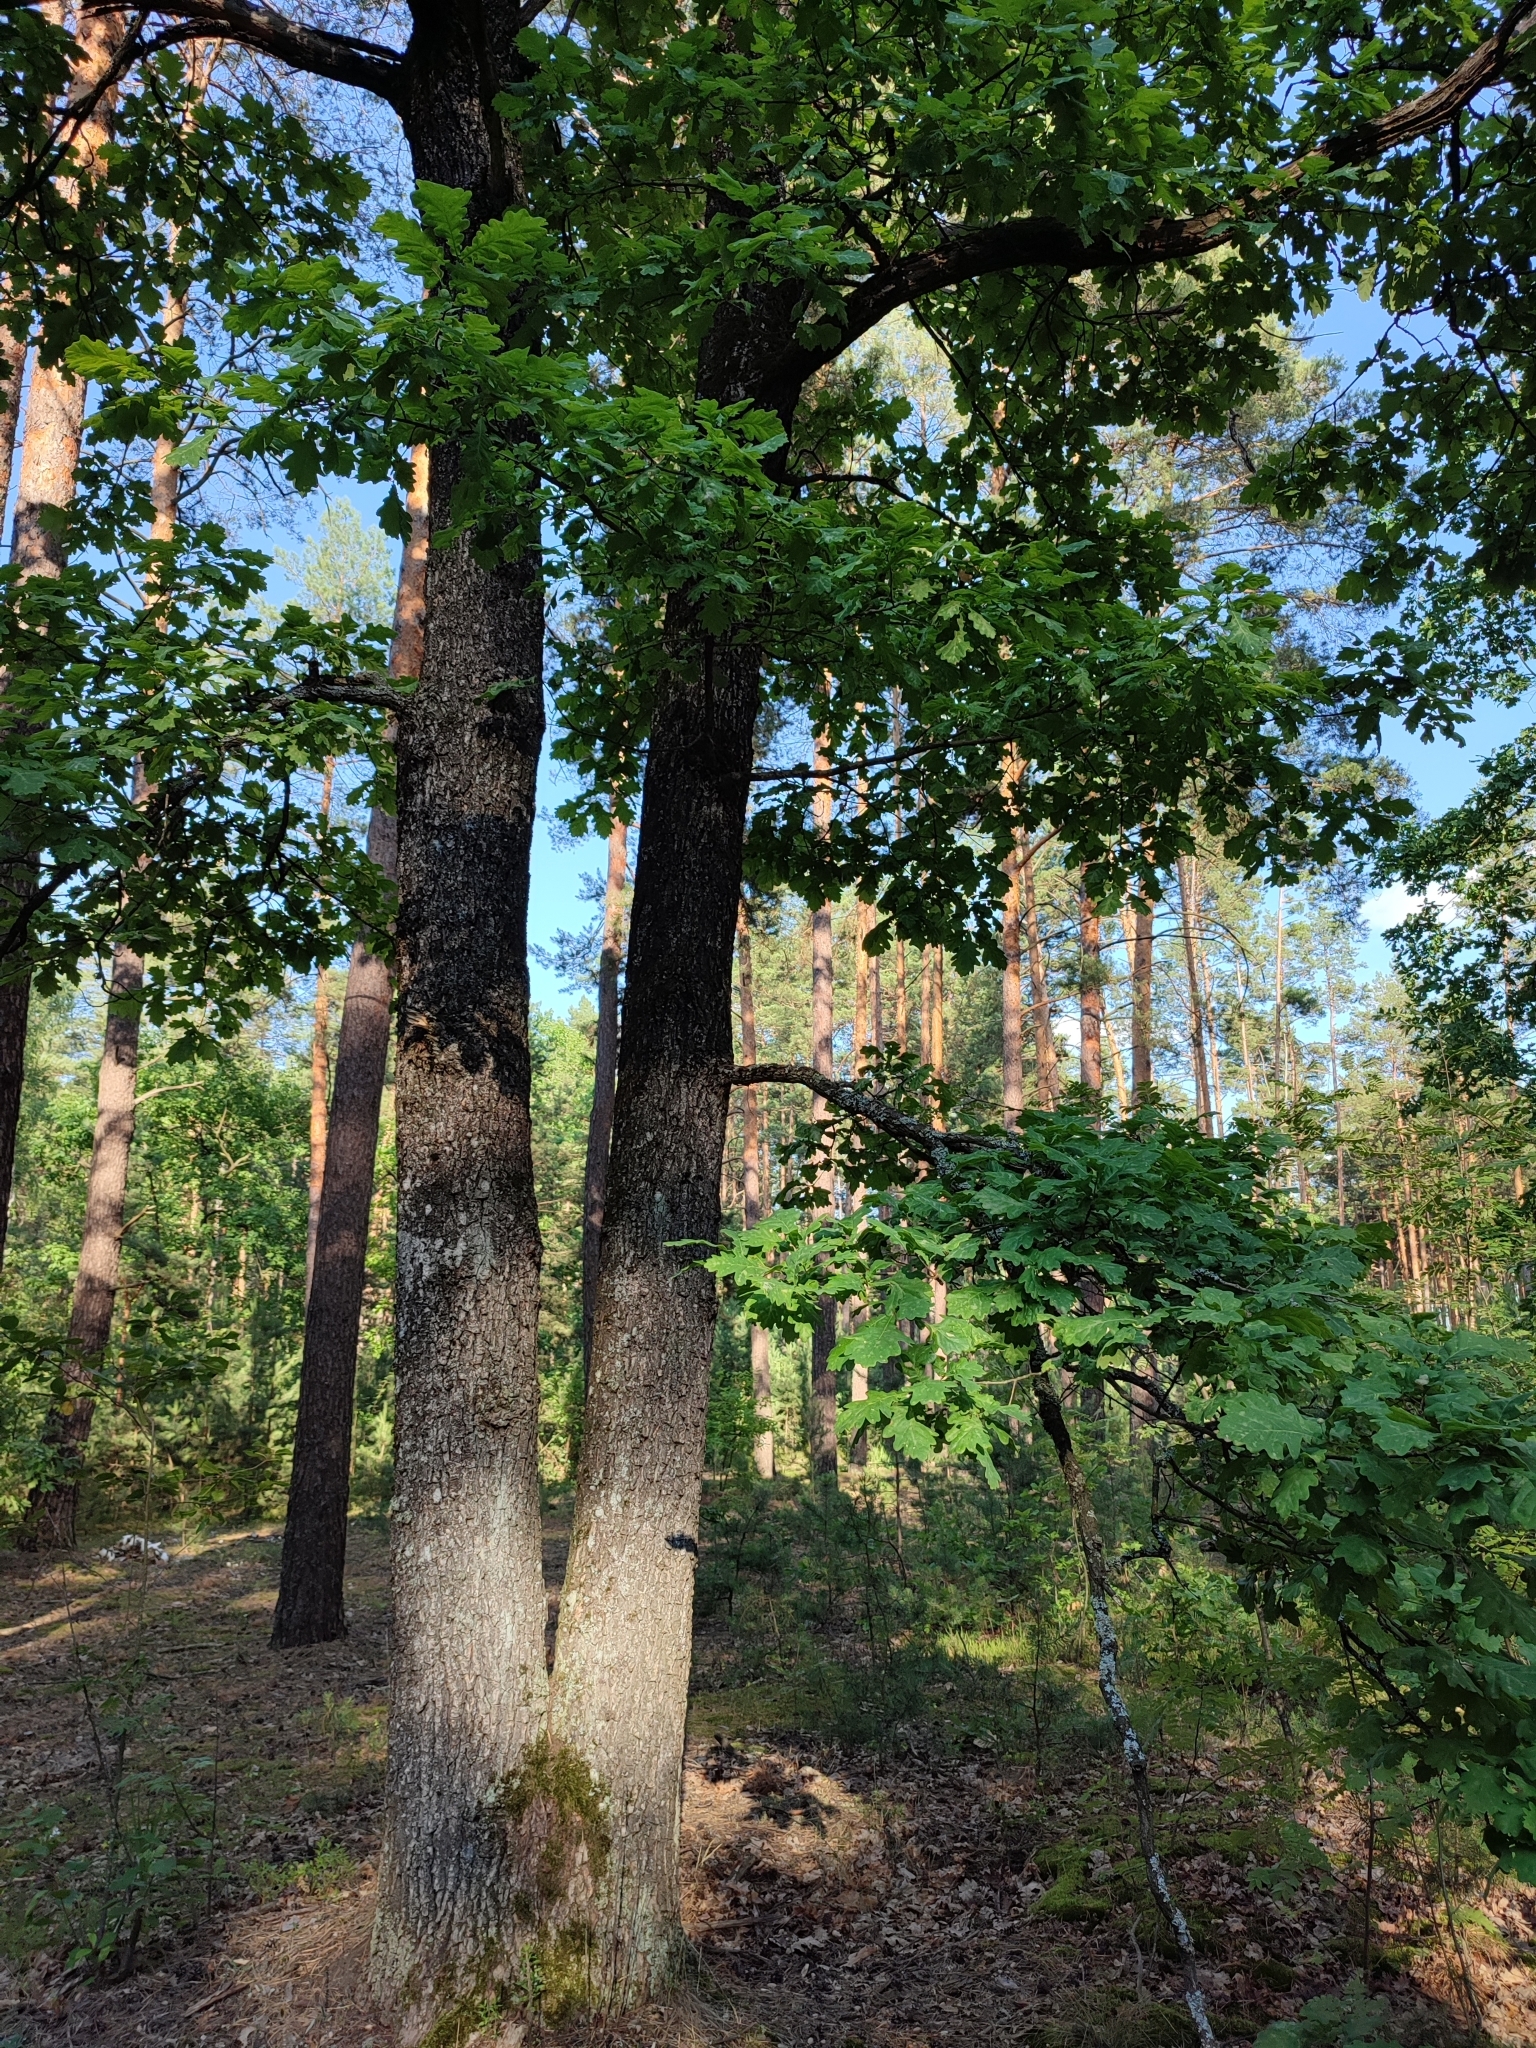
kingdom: Plantae
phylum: Tracheophyta
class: Magnoliopsida
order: Fagales
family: Fagaceae
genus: Quercus
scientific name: Quercus robur
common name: Pedunculate oak
